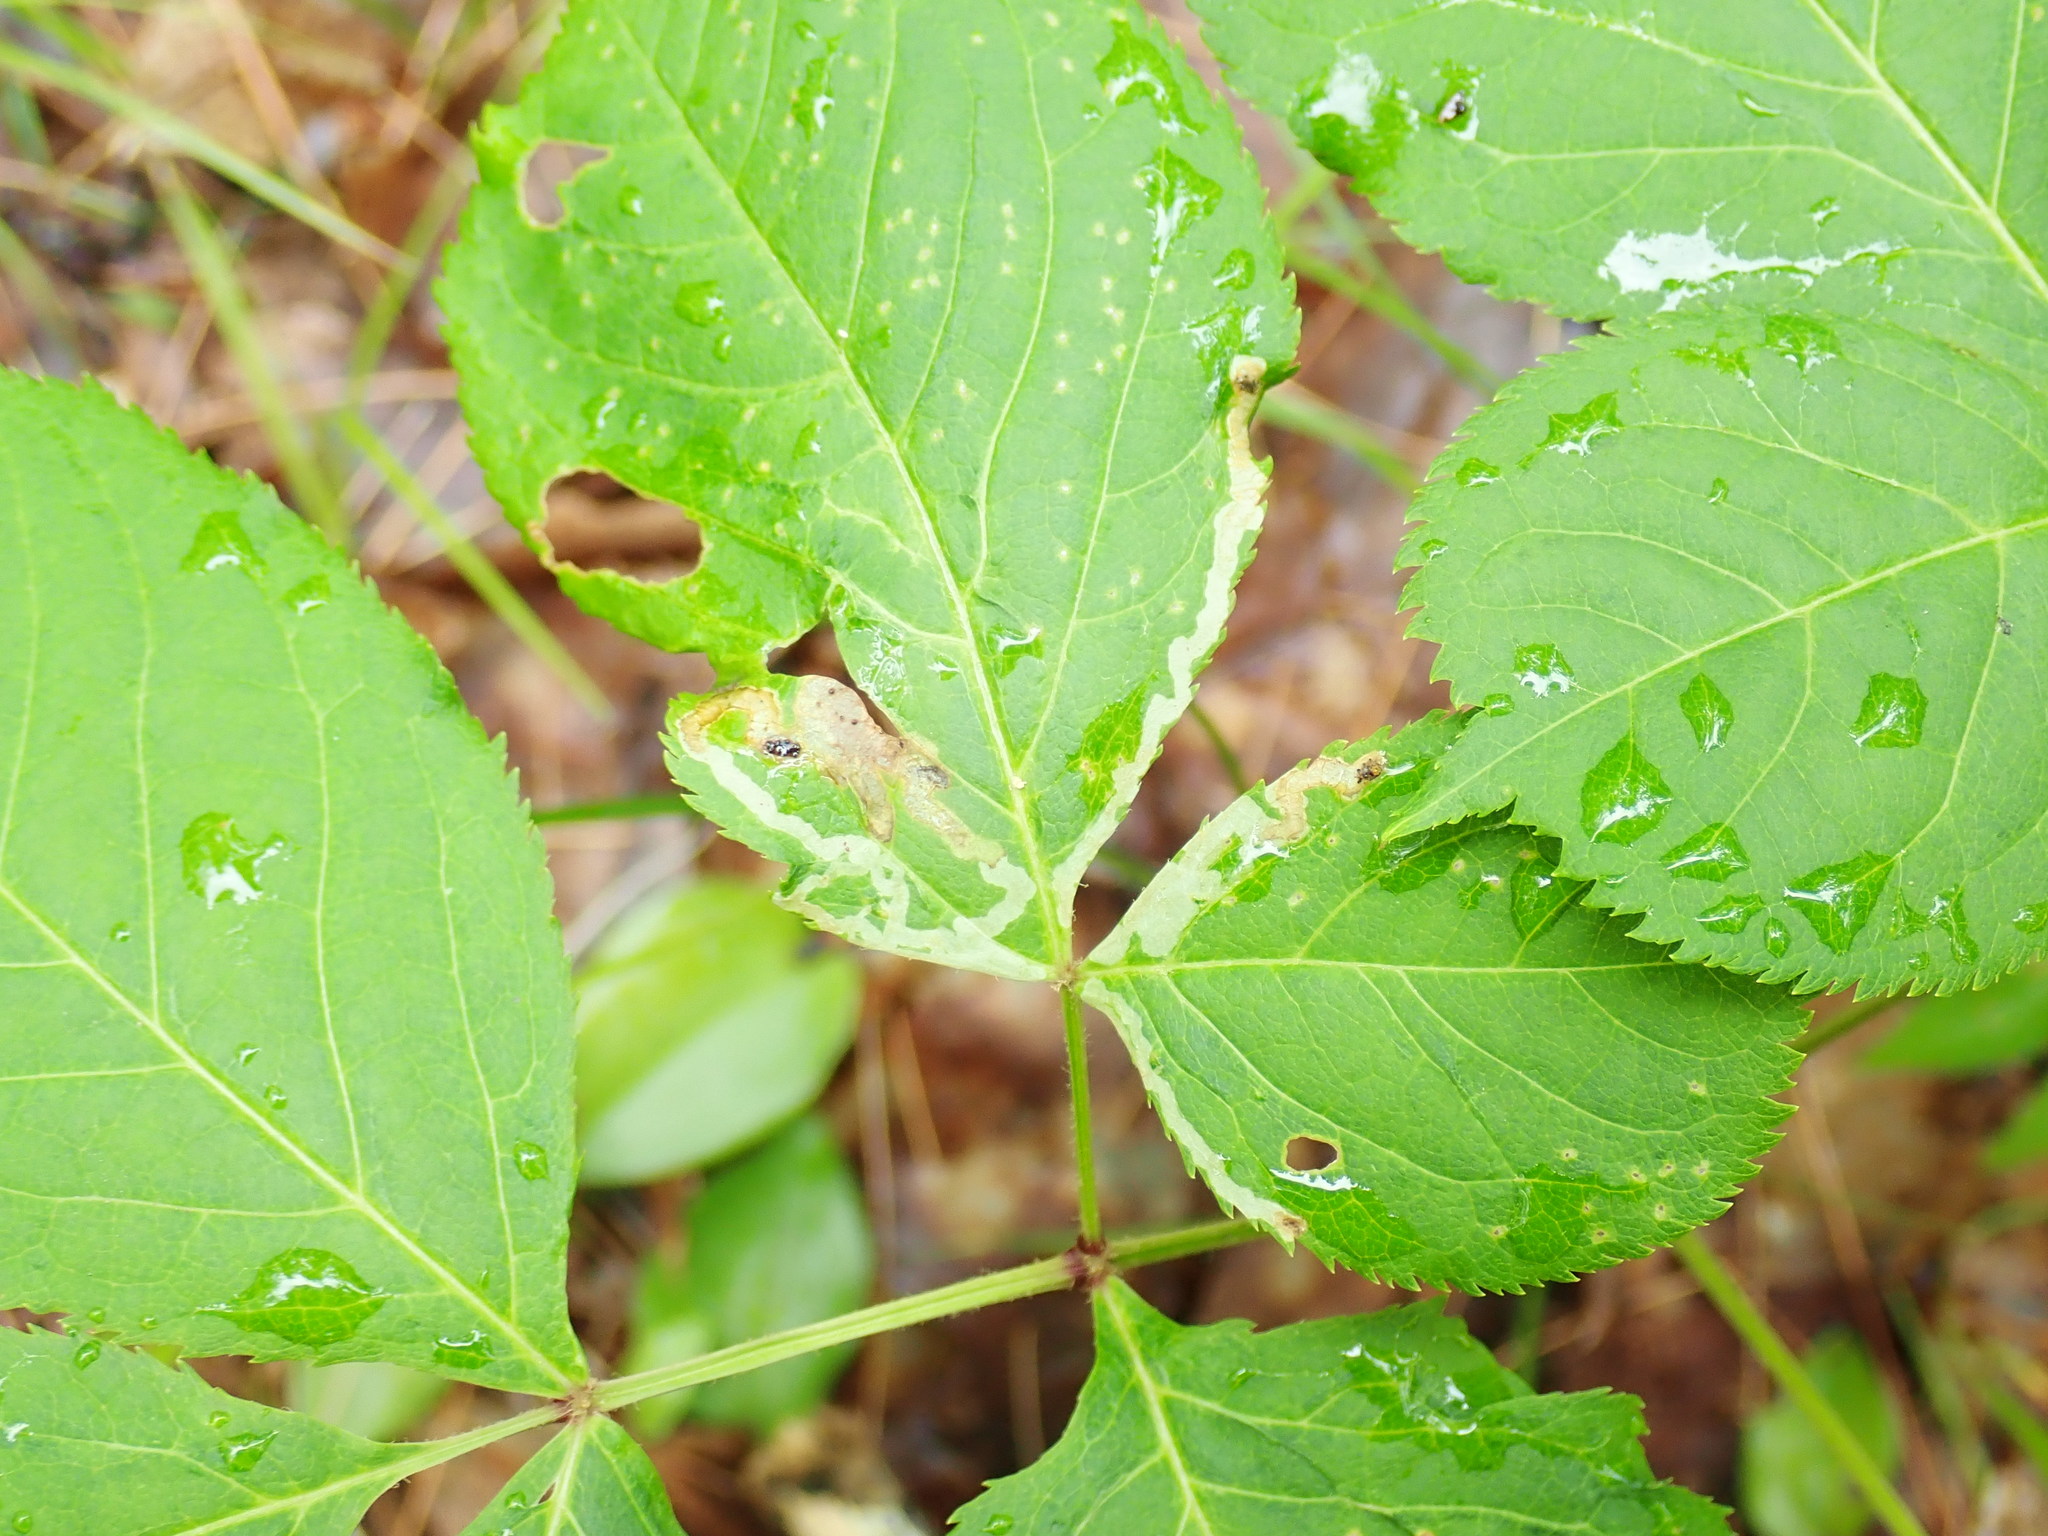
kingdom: Animalia
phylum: Arthropoda
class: Insecta
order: Diptera
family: Agromyzidae
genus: Phytomyza
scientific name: Phytomyza aralivora
